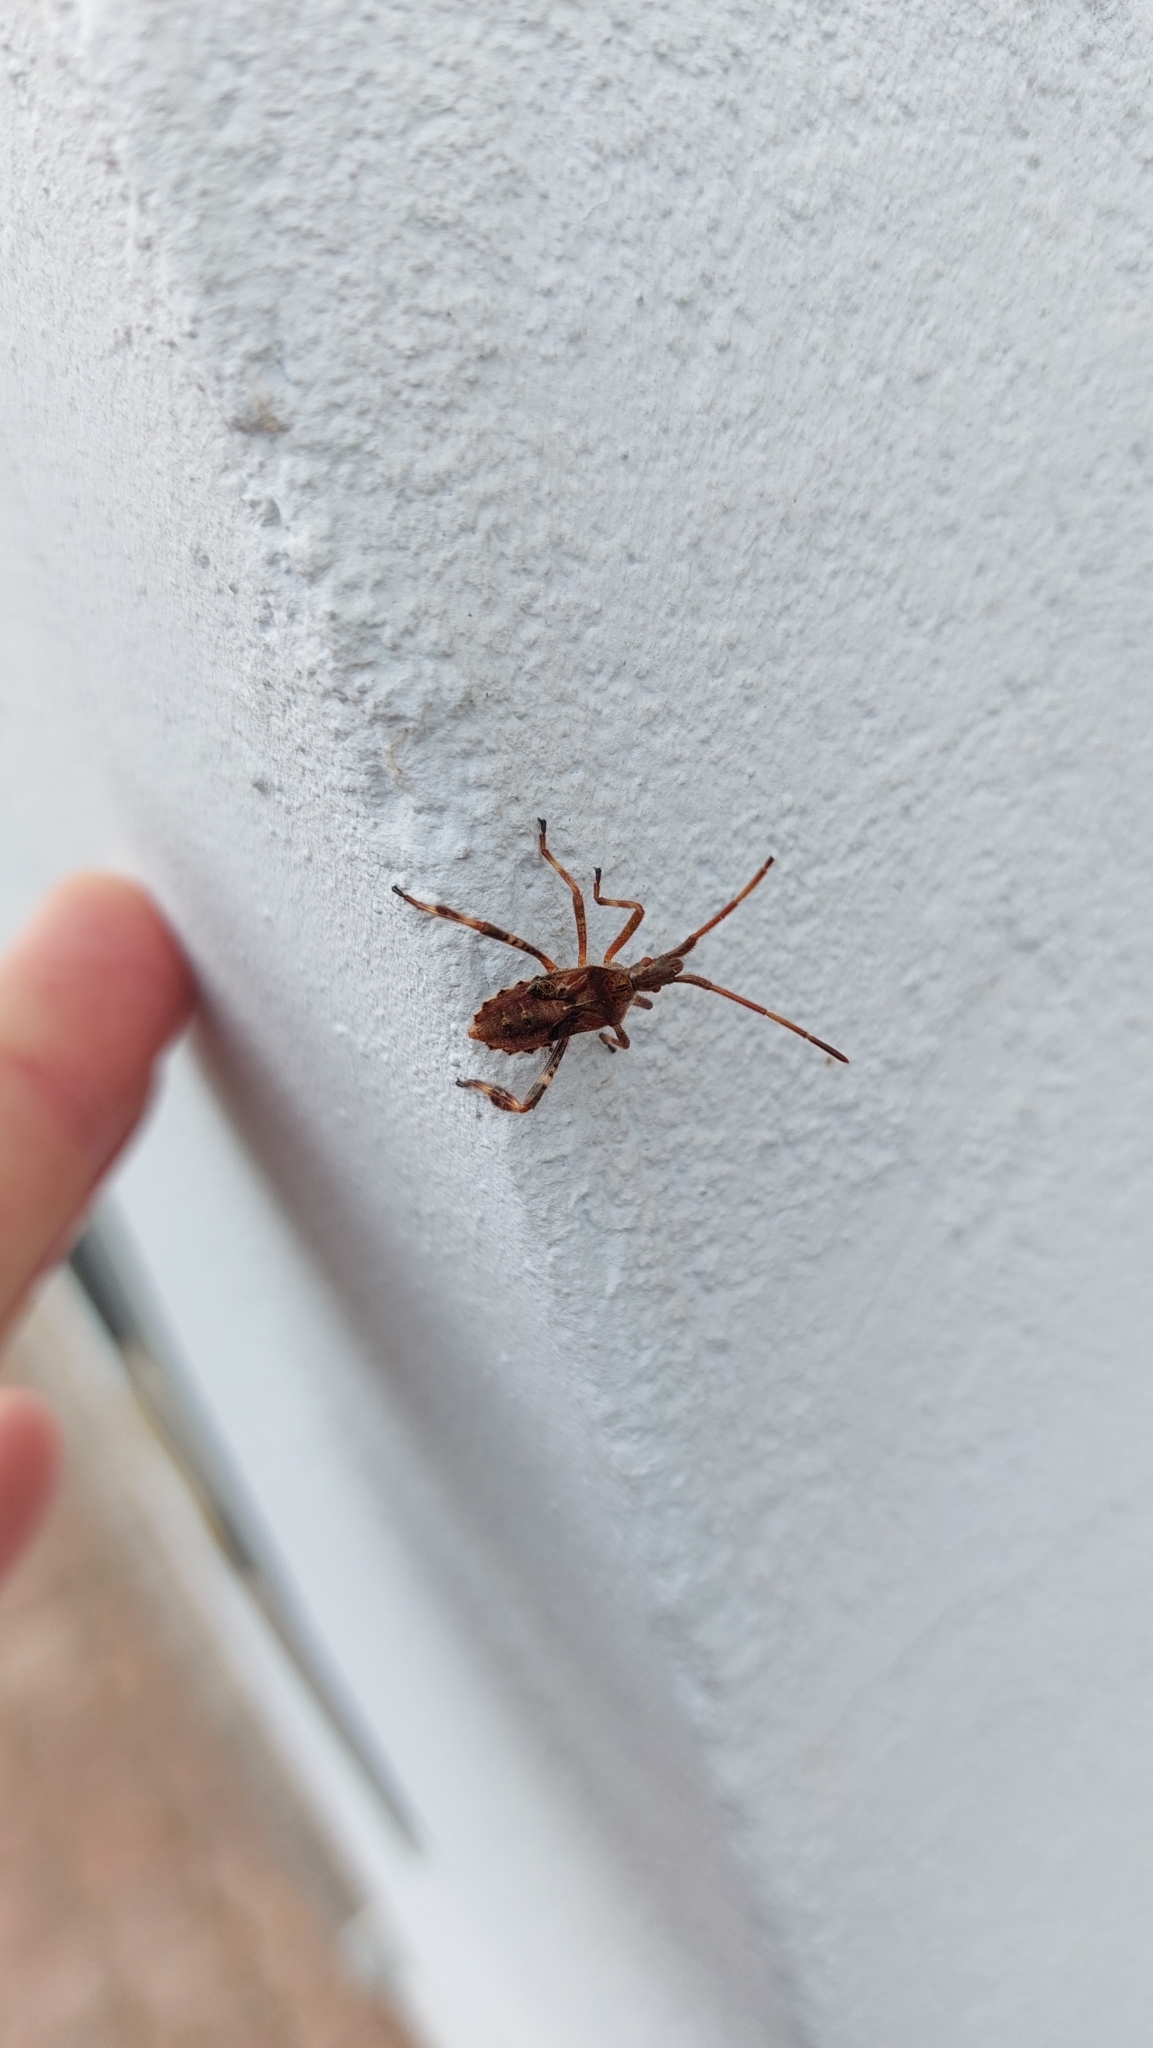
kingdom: Animalia
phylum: Arthropoda
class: Insecta
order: Hemiptera
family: Coreidae
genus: Leptoglossus
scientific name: Leptoglossus occidentalis
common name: Western conifer-seed bug
